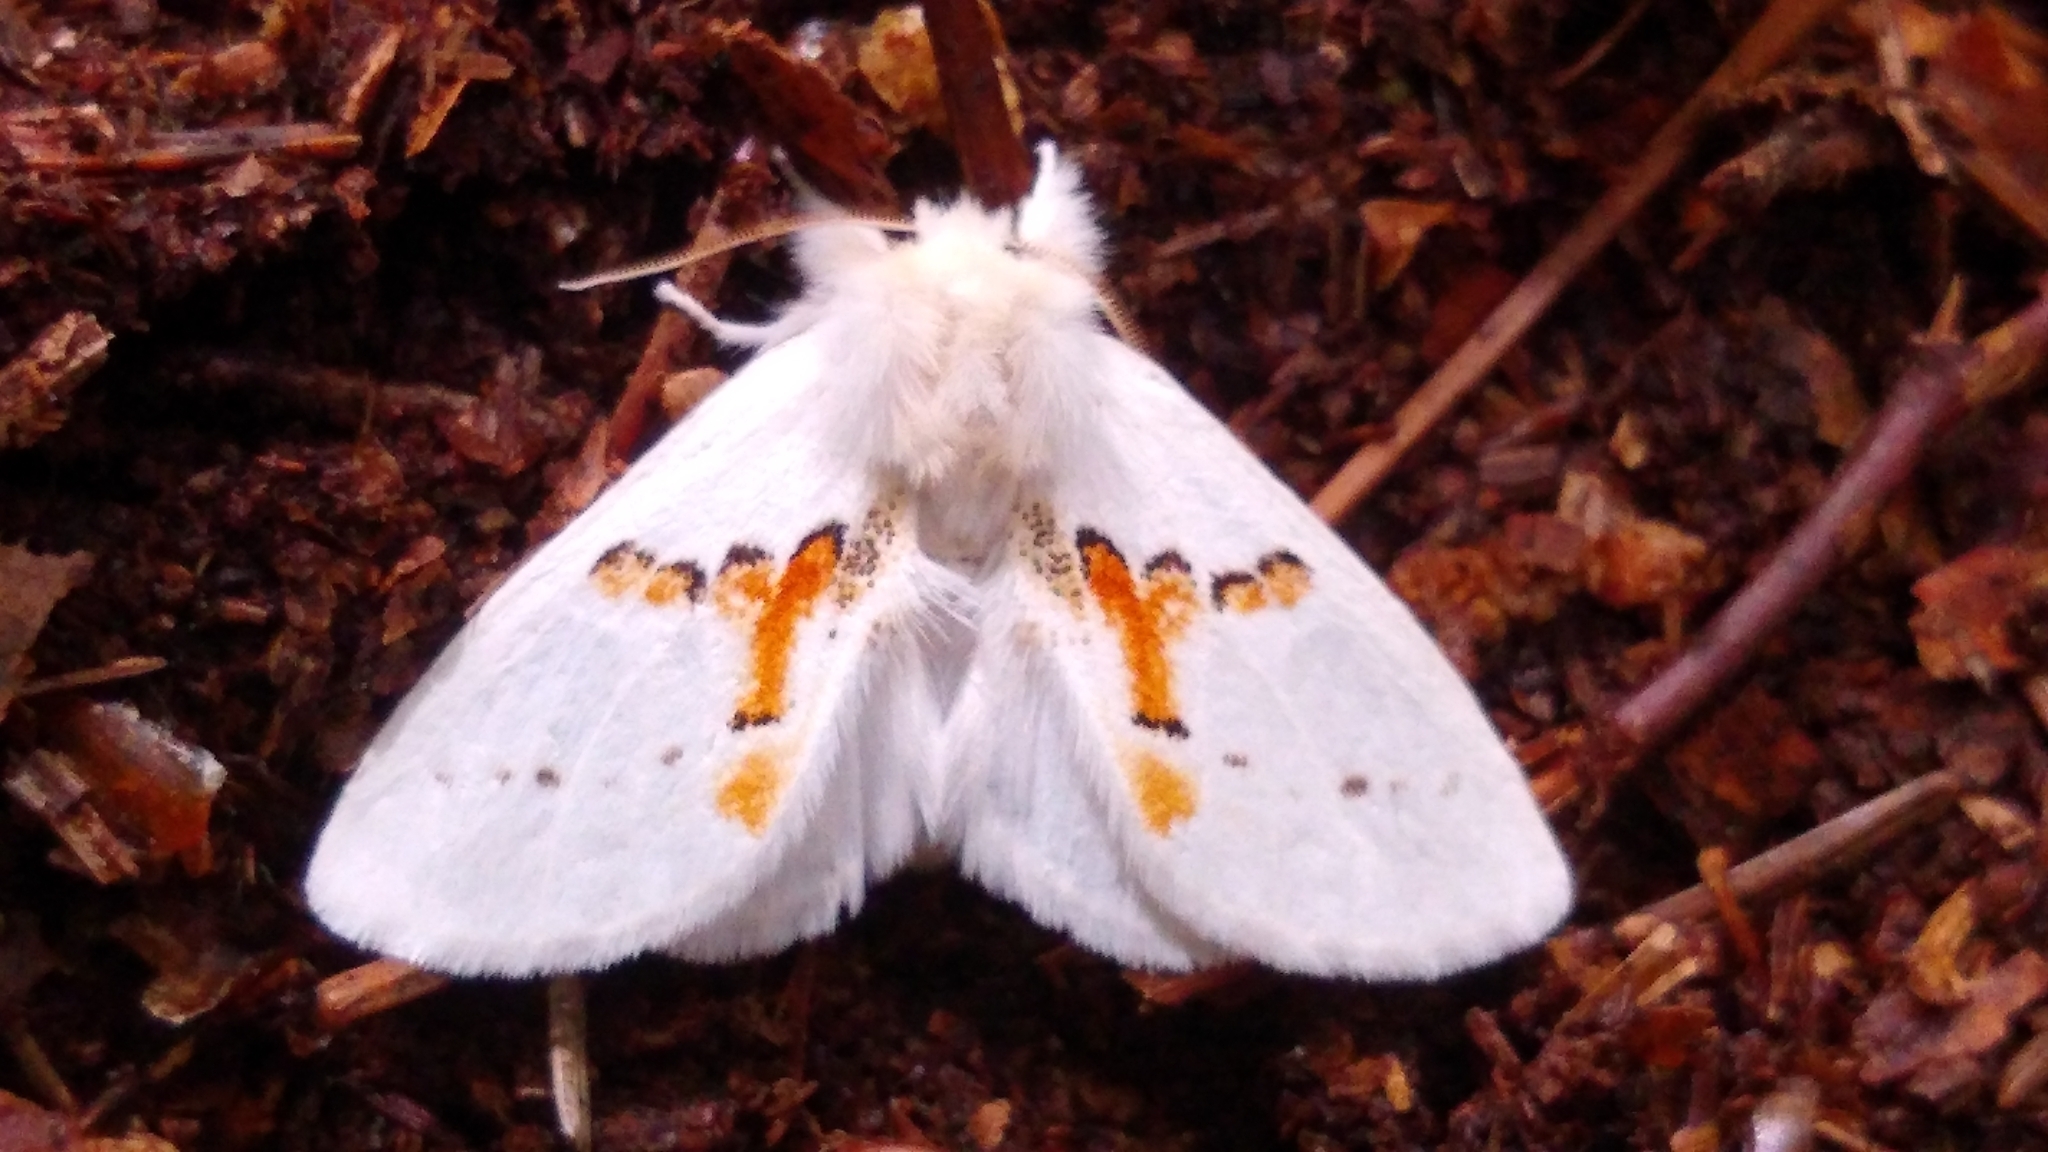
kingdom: Animalia
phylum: Arthropoda
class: Insecta
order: Lepidoptera
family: Notodontidae
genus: Leucodonta
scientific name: Leucodonta bicoloria
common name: White prominent
